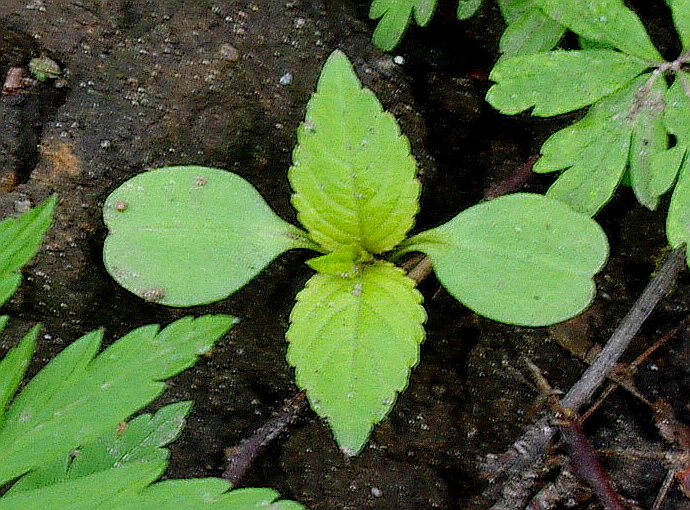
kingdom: Plantae
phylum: Tracheophyta
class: Magnoliopsida
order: Ericales
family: Balsaminaceae
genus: Impatiens
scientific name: Impatiens parviflora
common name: Small balsam
